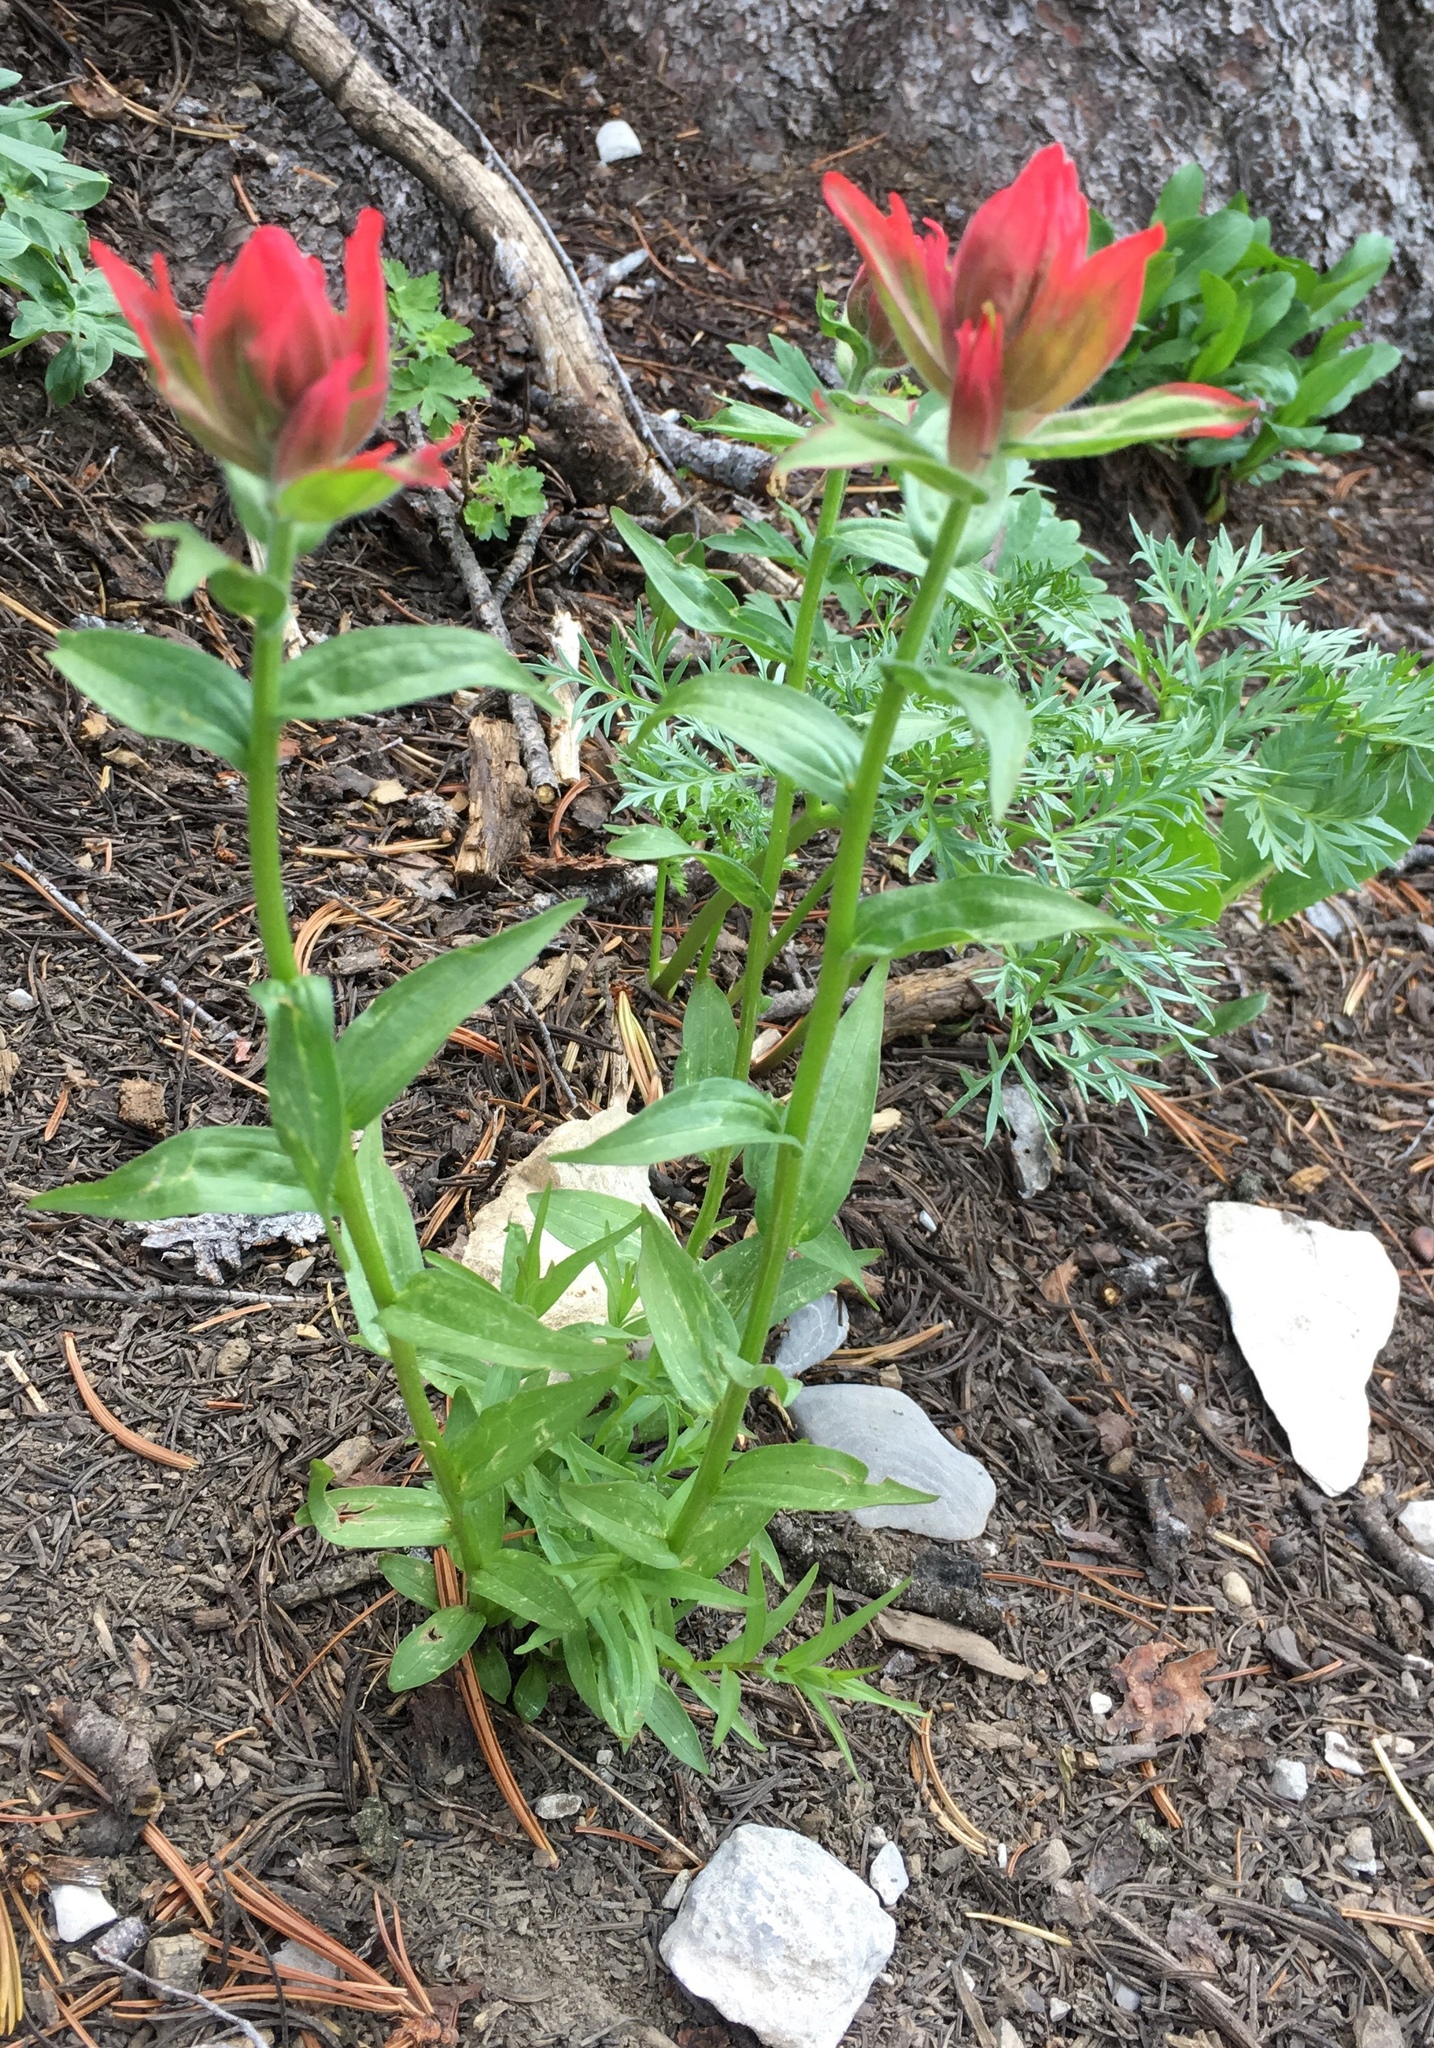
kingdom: Plantae
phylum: Tracheophyta
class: Magnoliopsida
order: Lamiales
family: Orobanchaceae
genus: Castilleja
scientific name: Castilleja
